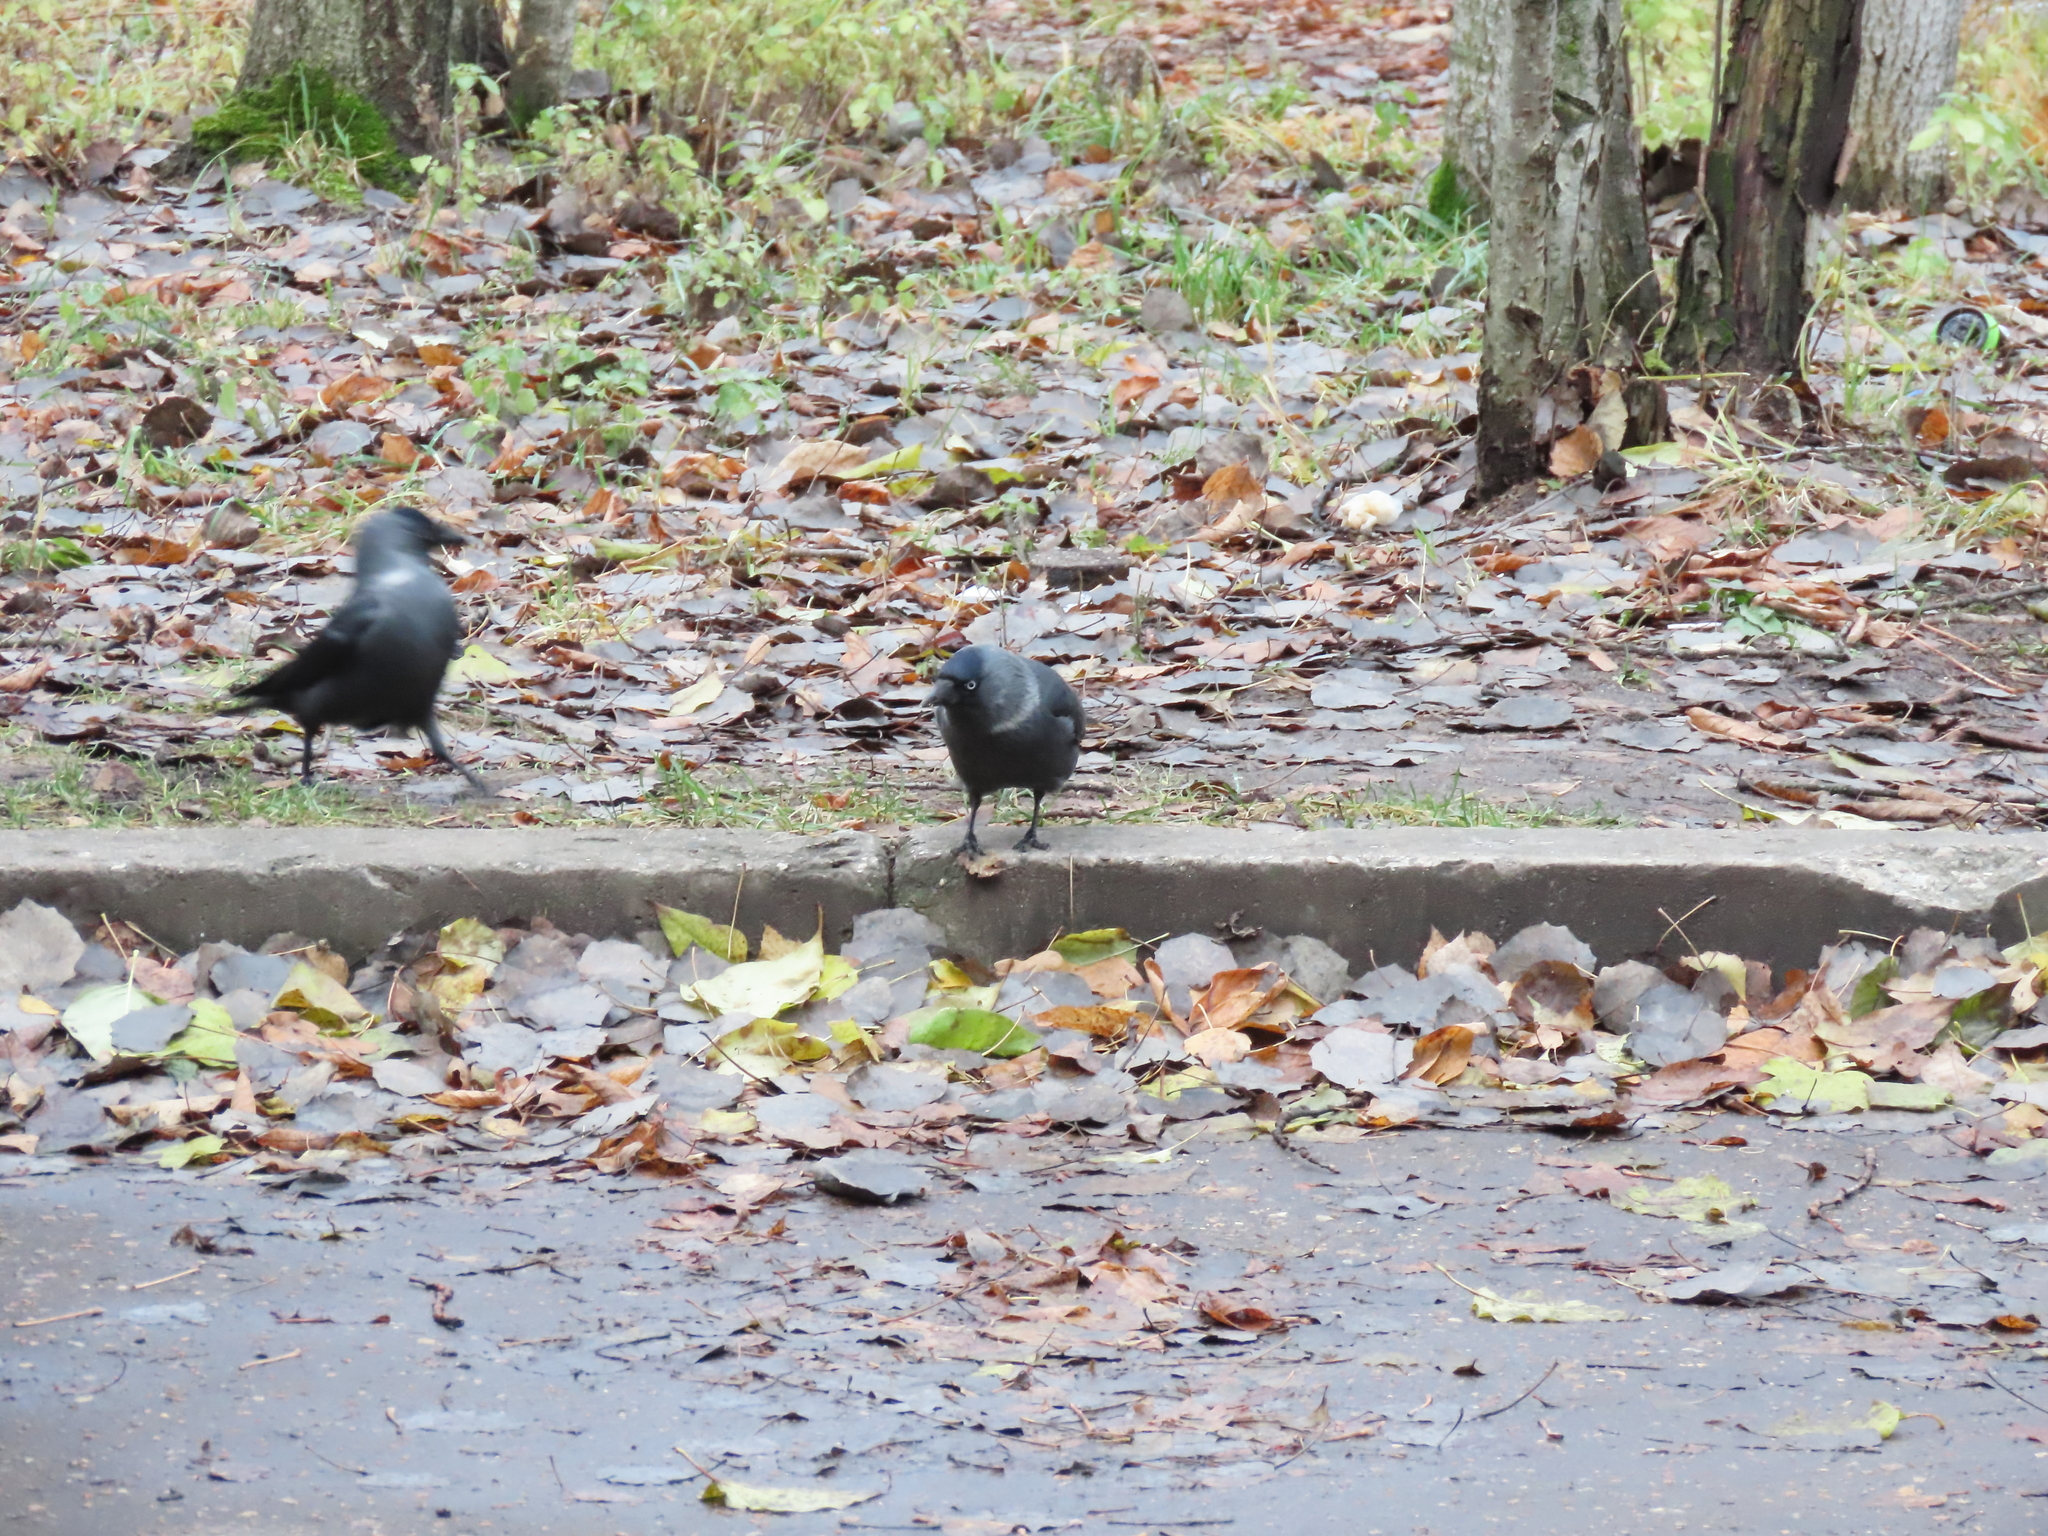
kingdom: Animalia
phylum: Chordata
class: Aves
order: Passeriformes
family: Corvidae
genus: Coloeus
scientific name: Coloeus monedula
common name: Western jackdaw
